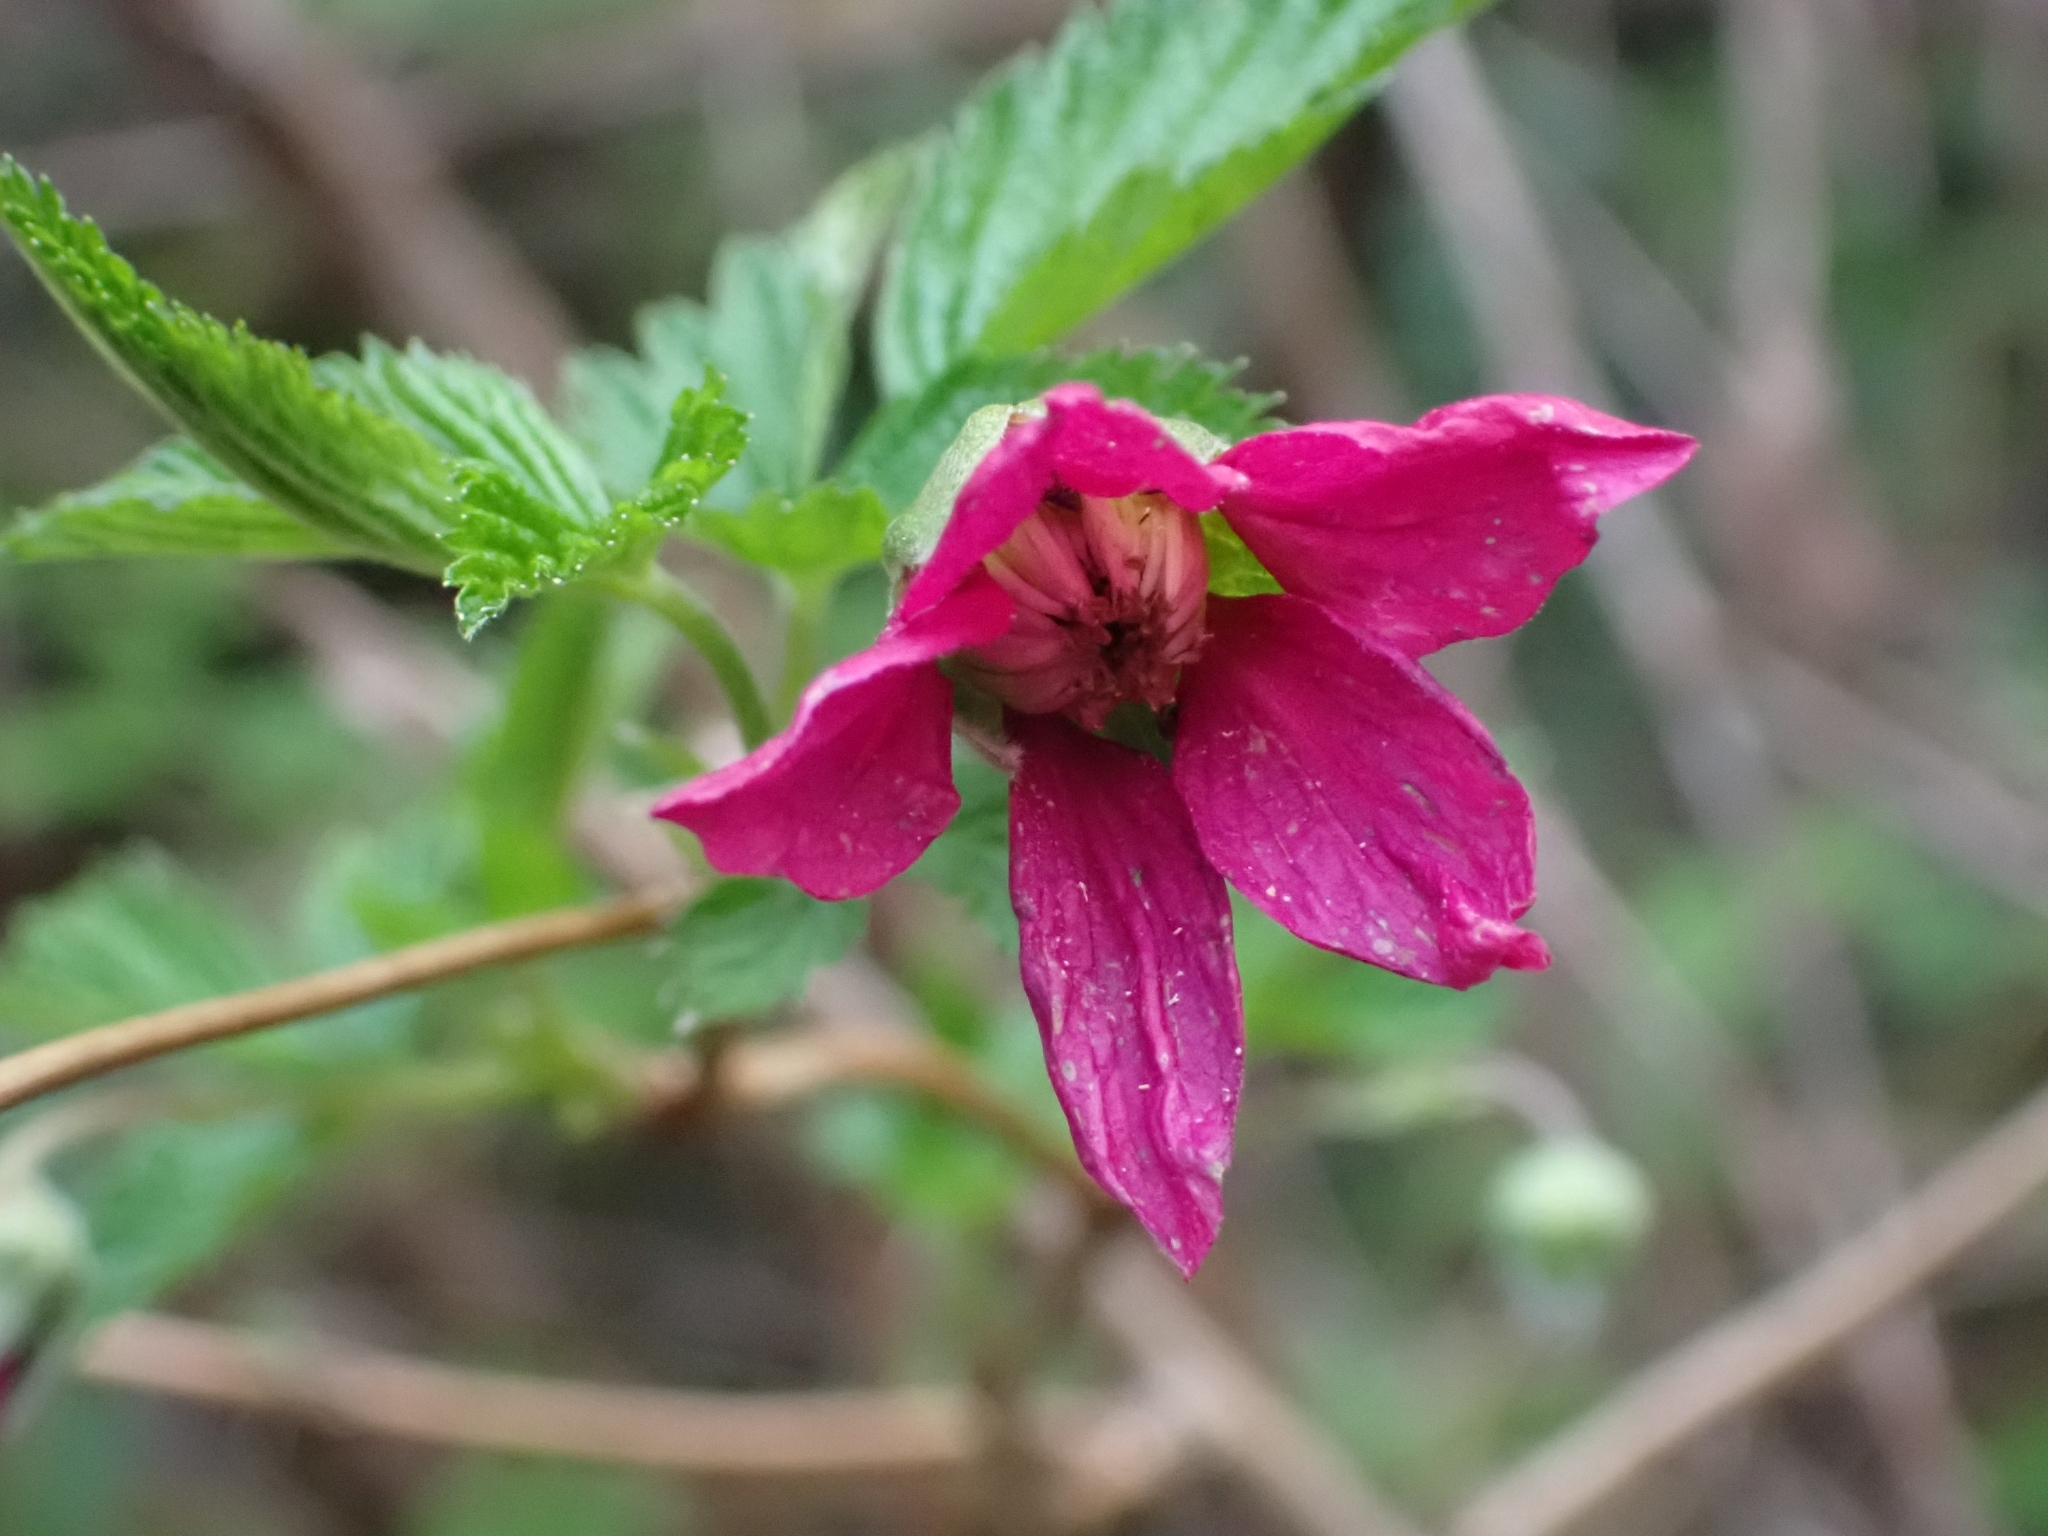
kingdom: Plantae
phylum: Tracheophyta
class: Magnoliopsida
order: Rosales
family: Rosaceae
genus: Rubus
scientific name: Rubus spectabilis
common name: Salmonberry
